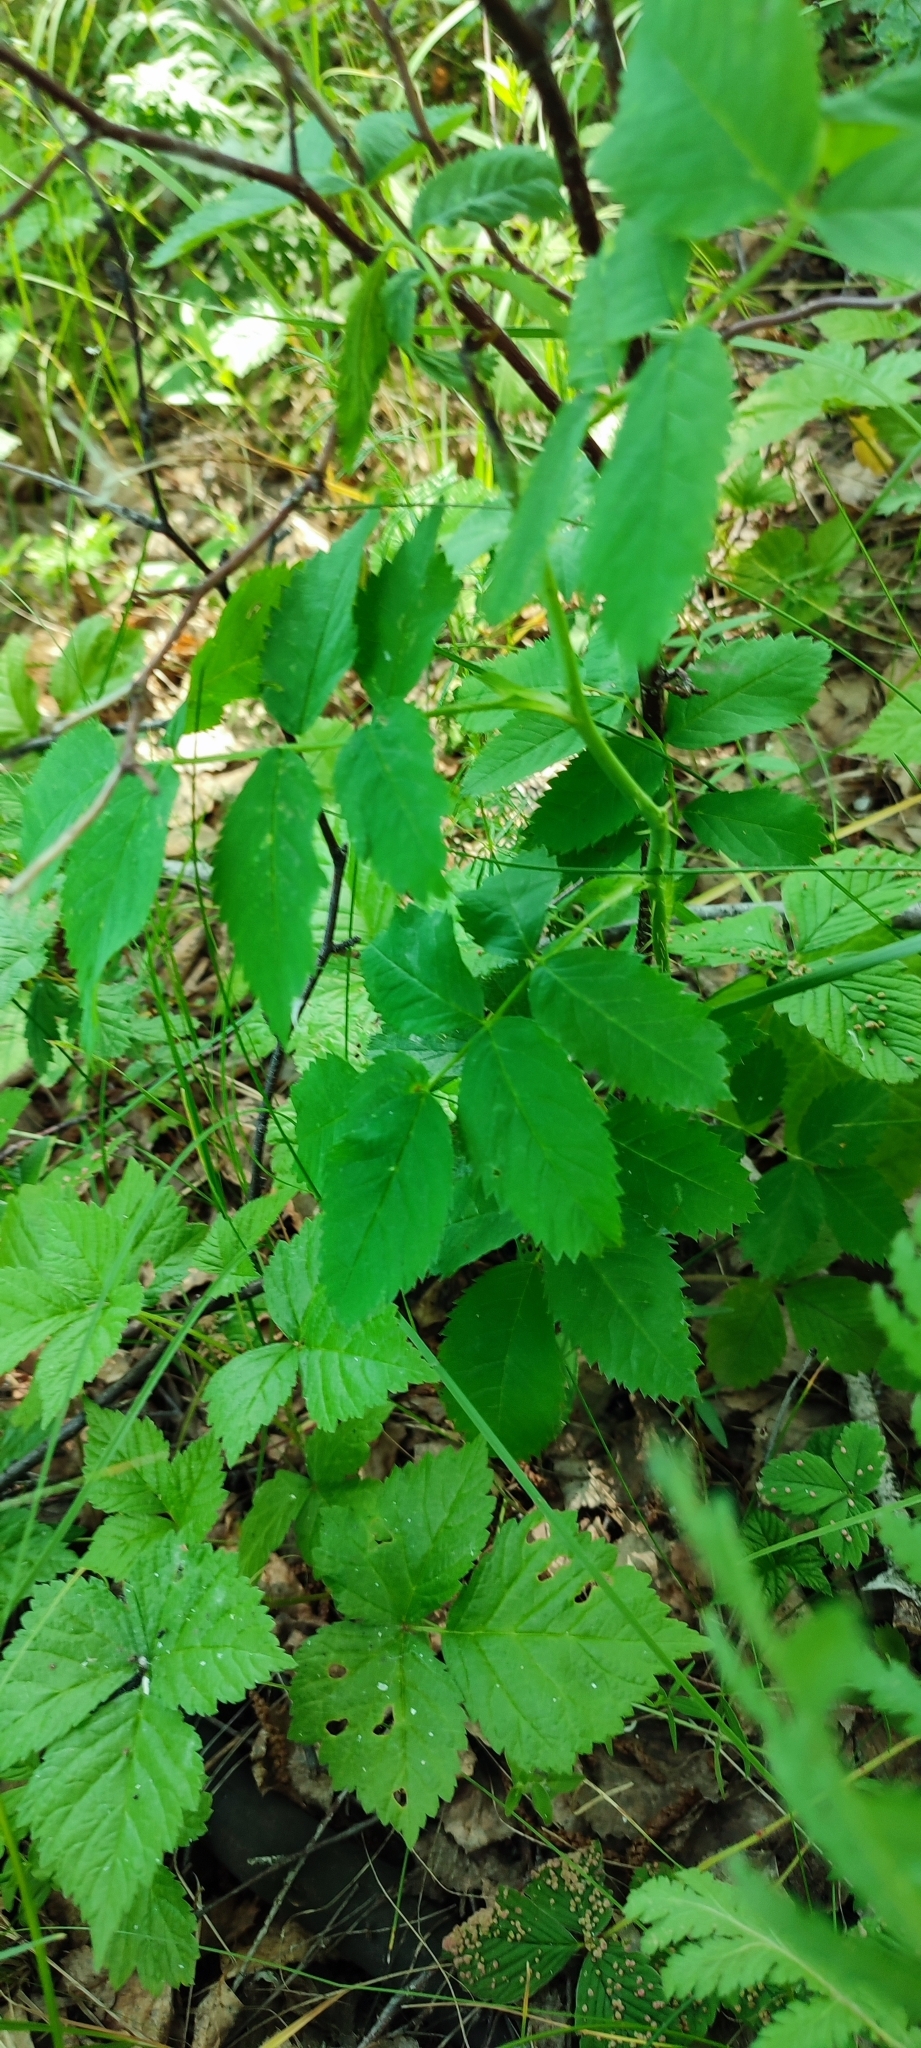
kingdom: Plantae
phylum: Tracheophyta
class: Magnoliopsida
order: Rosales
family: Rosaceae
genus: Rosa
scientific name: Rosa glabrifolia
